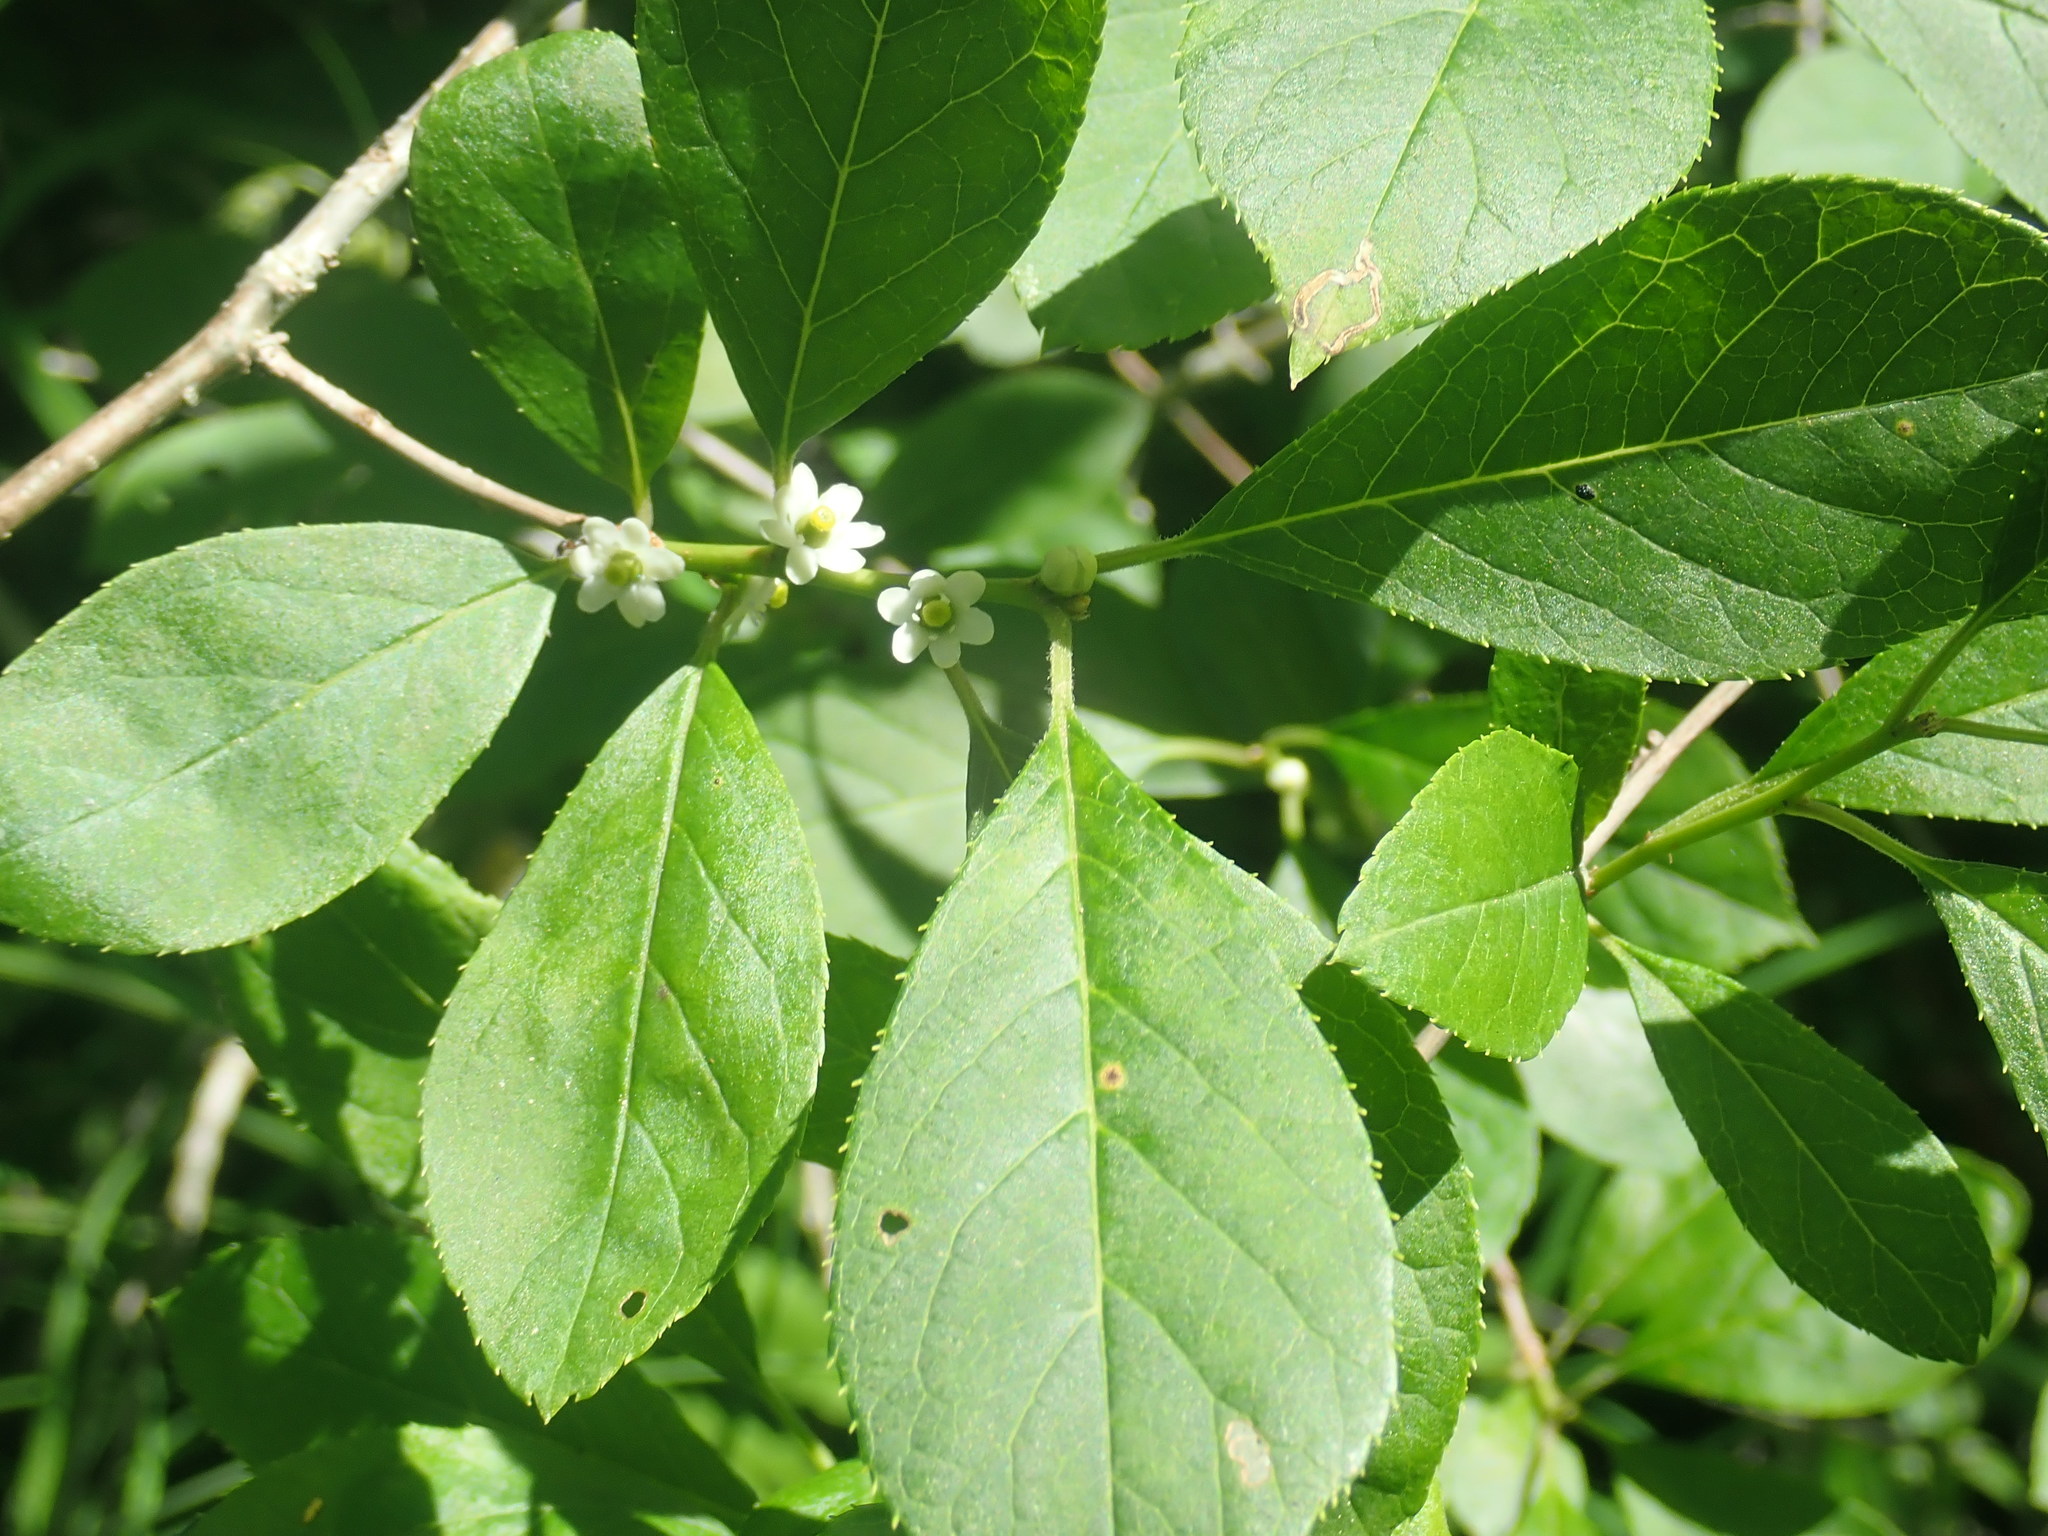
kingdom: Plantae
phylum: Tracheophyta
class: Magnoliopsida
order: Aquifoliales
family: Aquifoliaceae
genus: Ilex
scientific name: Ilex verticillata
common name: Virginia winterberry
